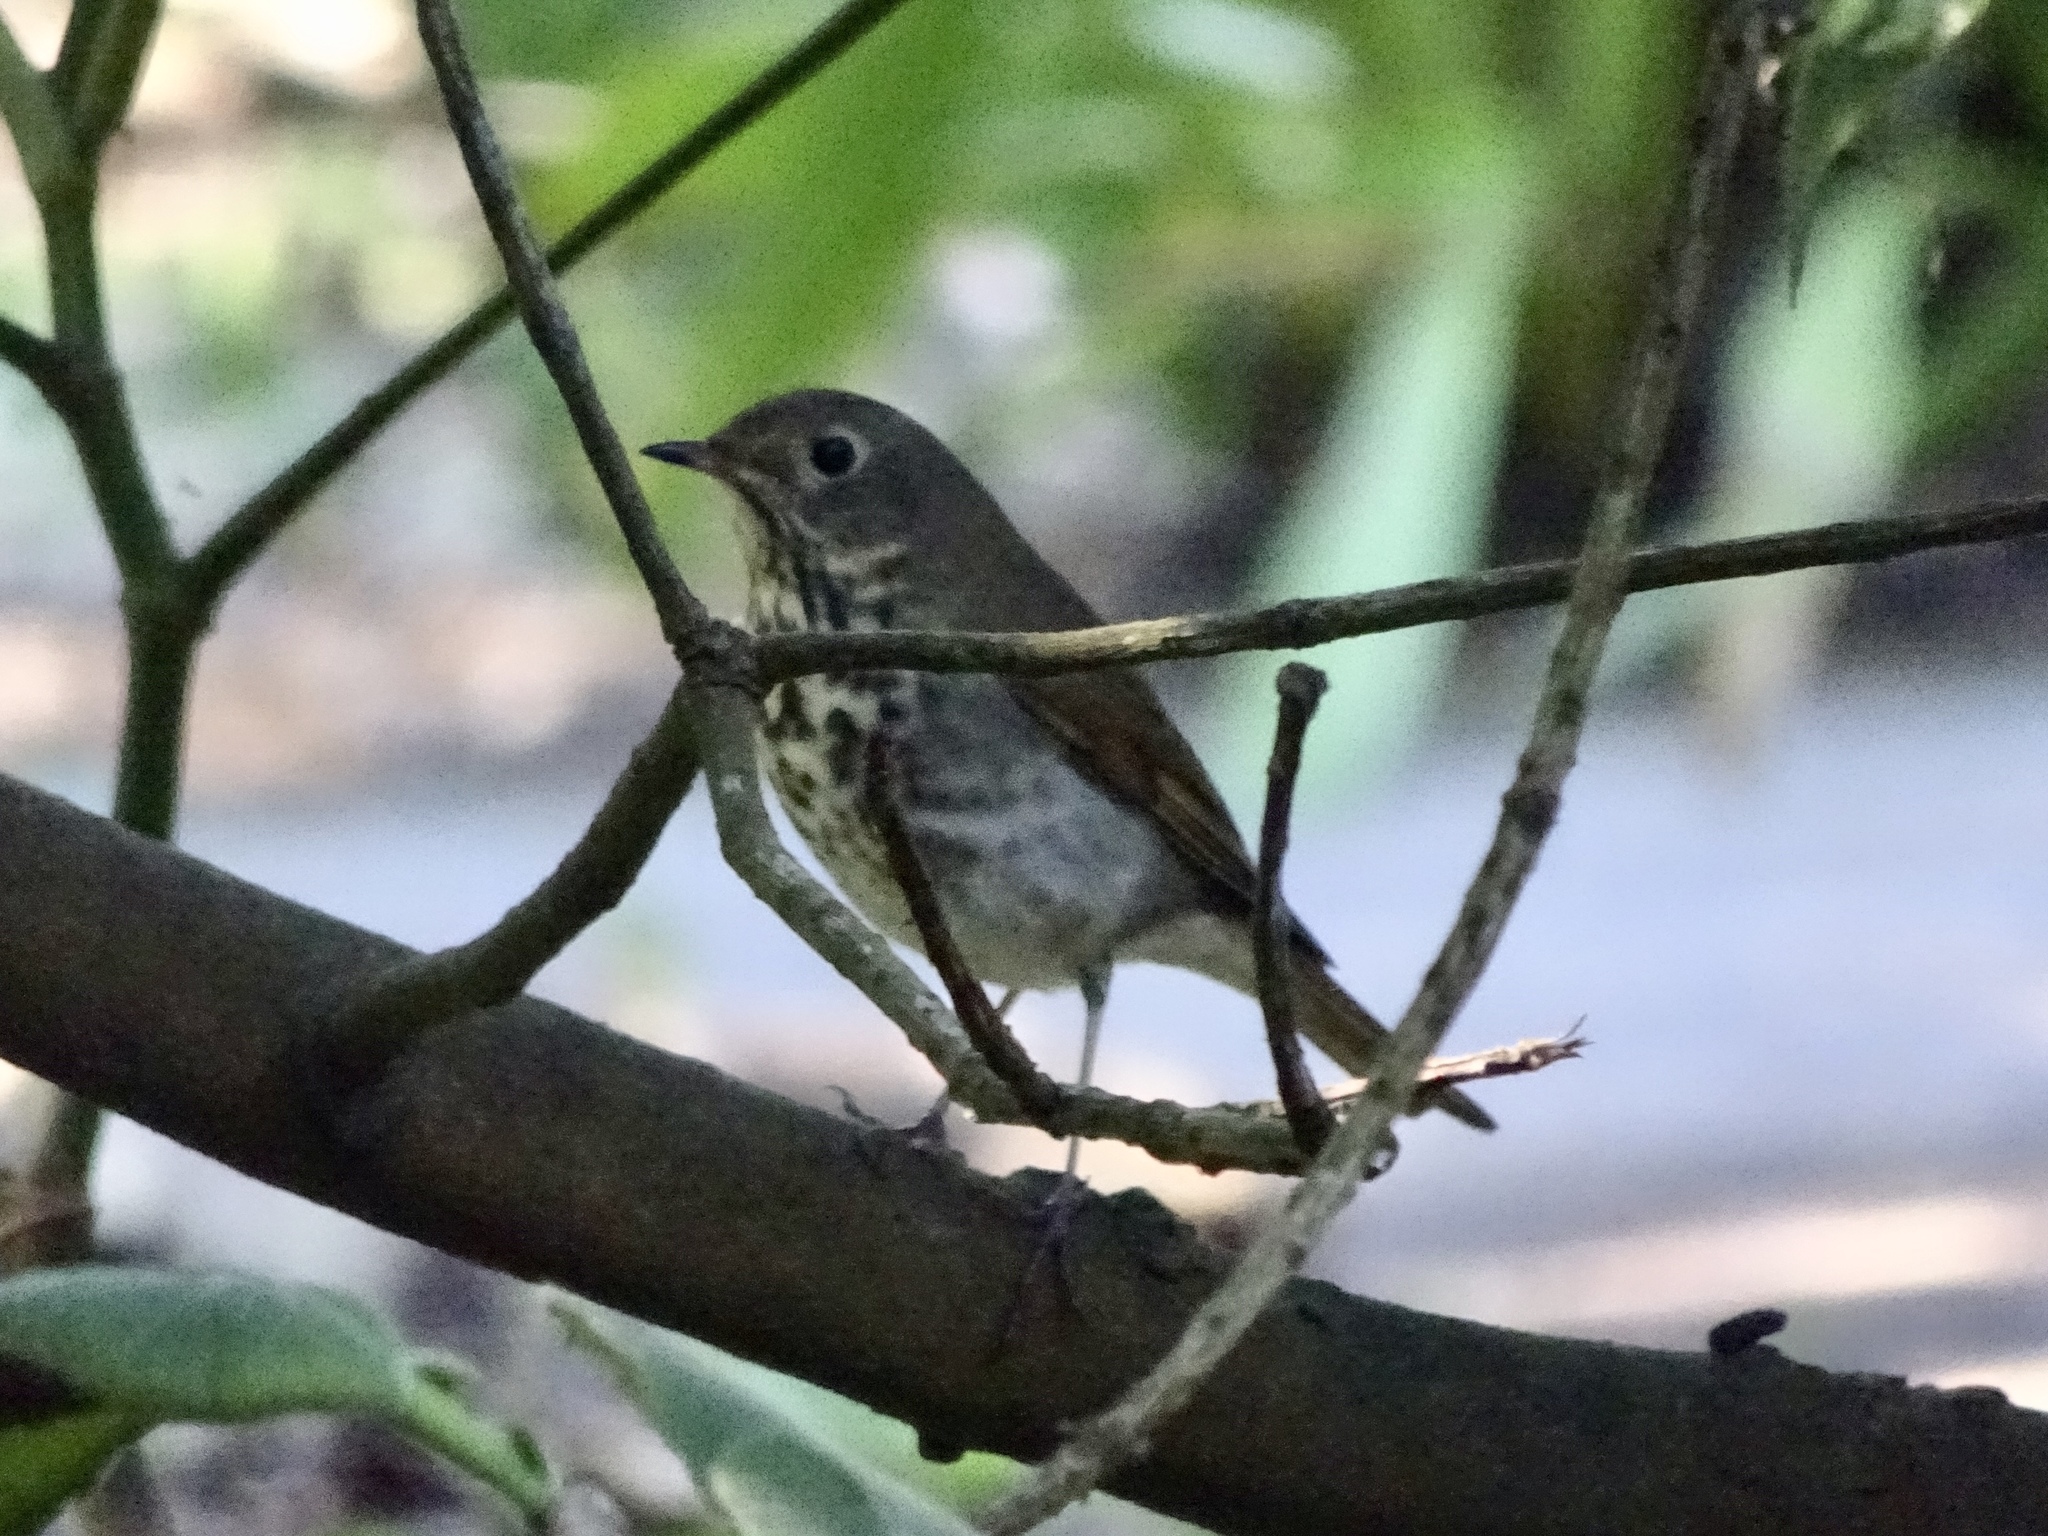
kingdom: Animalia
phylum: Chordata
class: Aves
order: Passeriformes
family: Turdidae
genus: Catharus
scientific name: Catharus guttatus
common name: Hermit thrush
